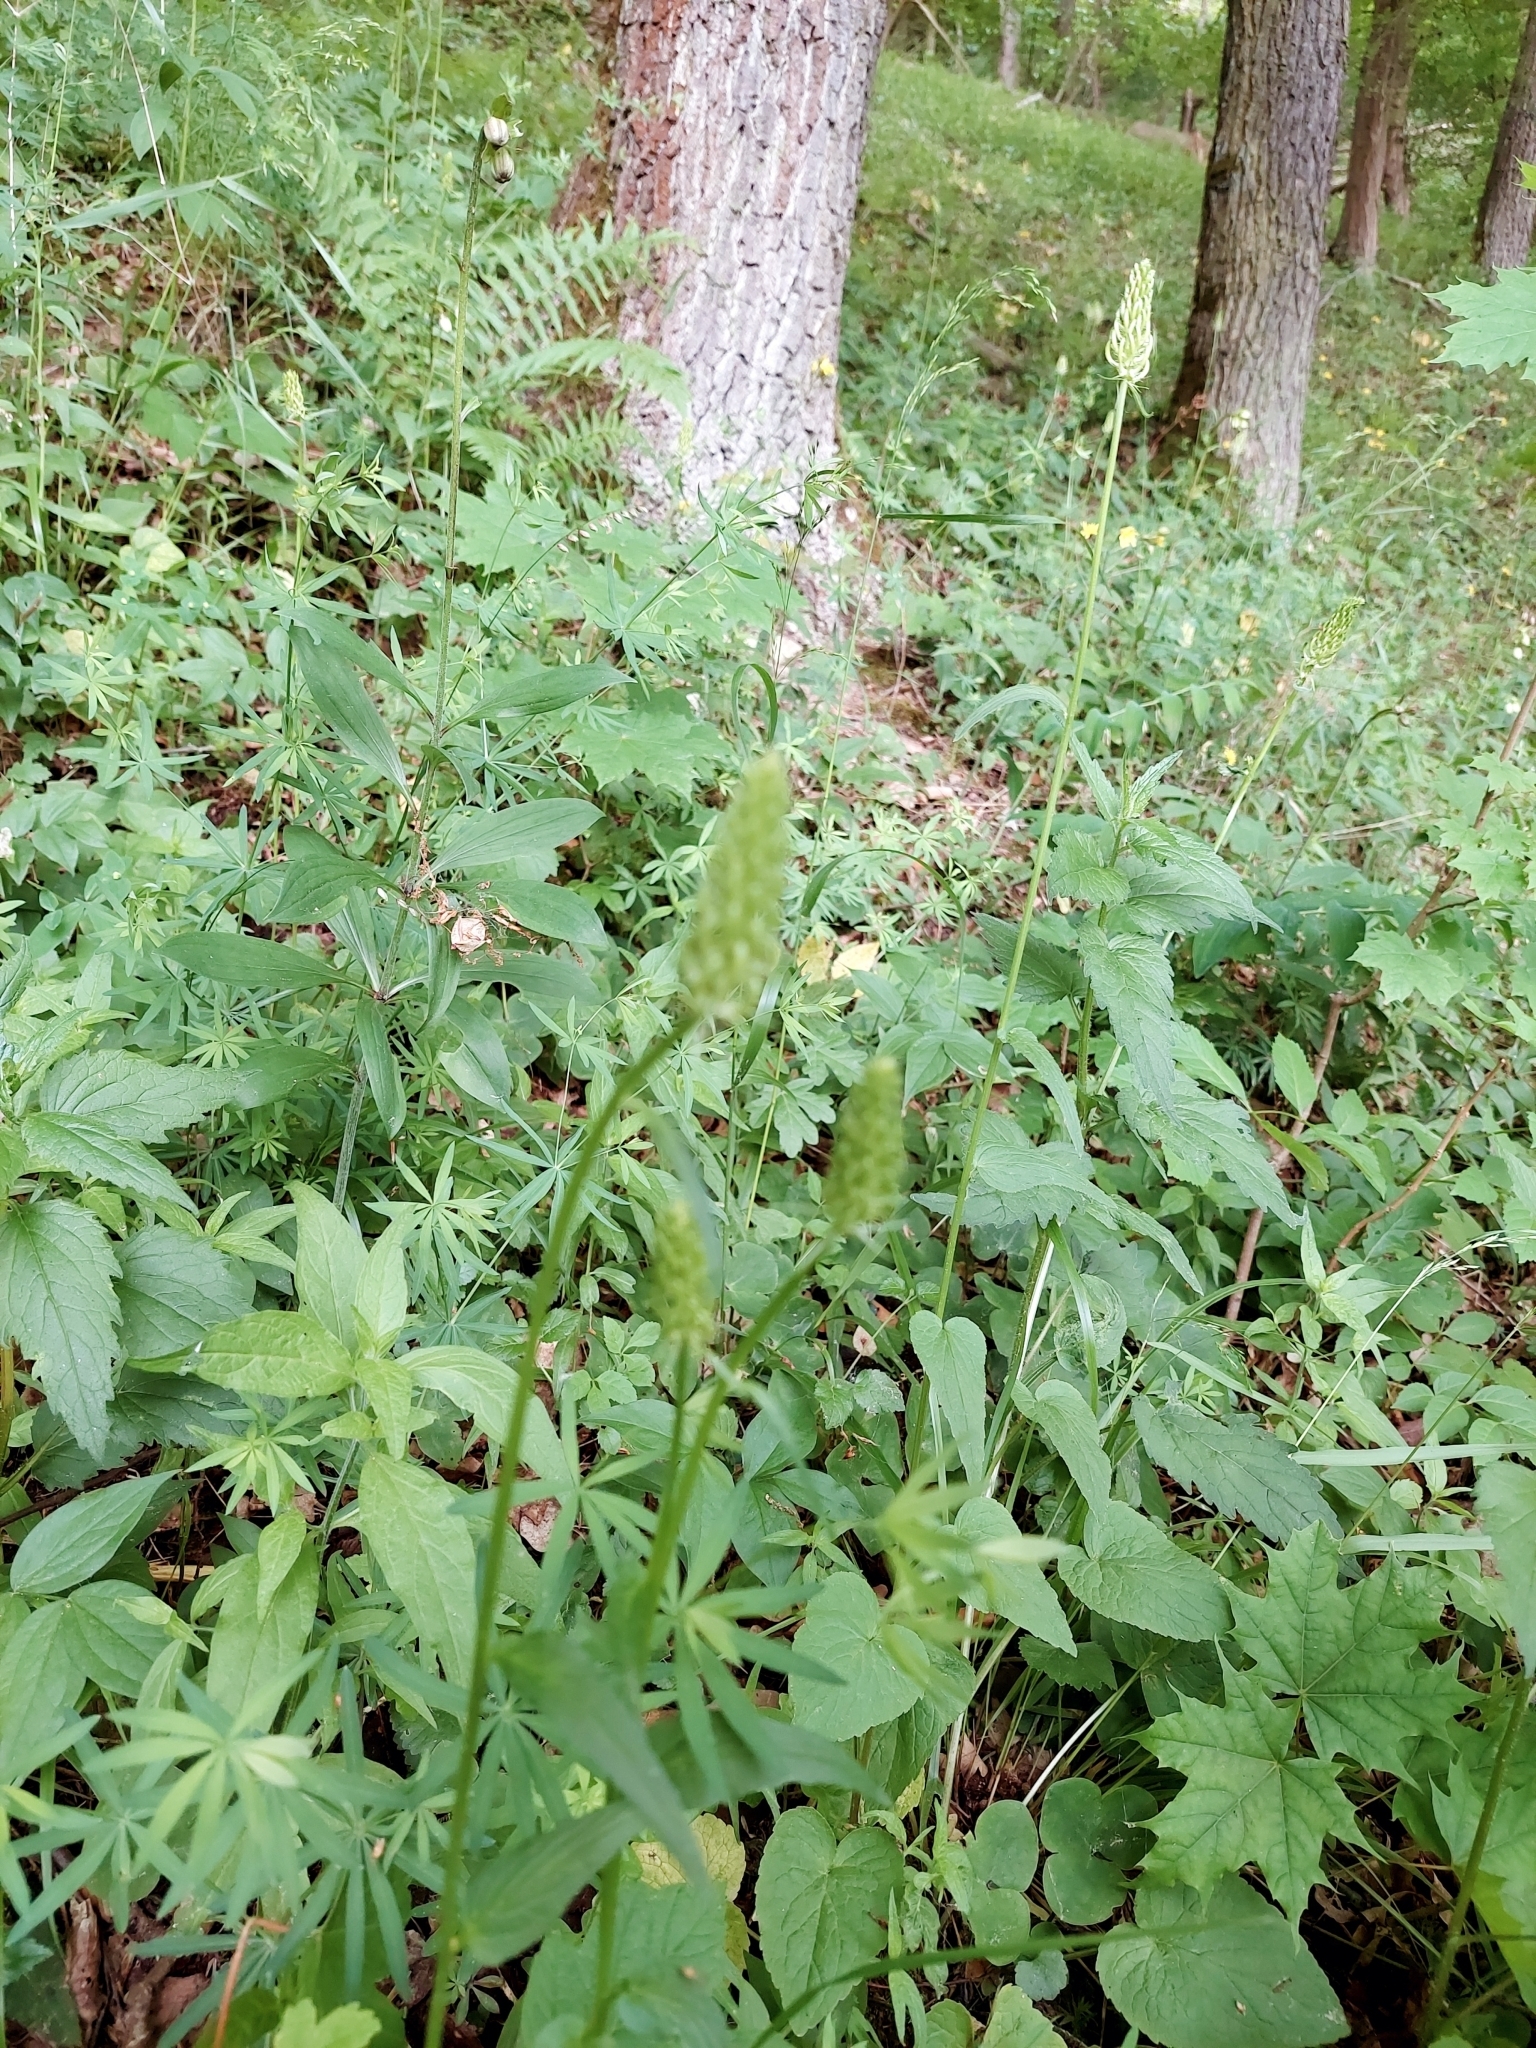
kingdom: Plantae
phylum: Tracheophyta
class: Magnoliopsida
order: Asterales
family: Campanulaceae
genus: Phyteuma
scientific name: Phyteuma spicatum
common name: Spiked rampion
